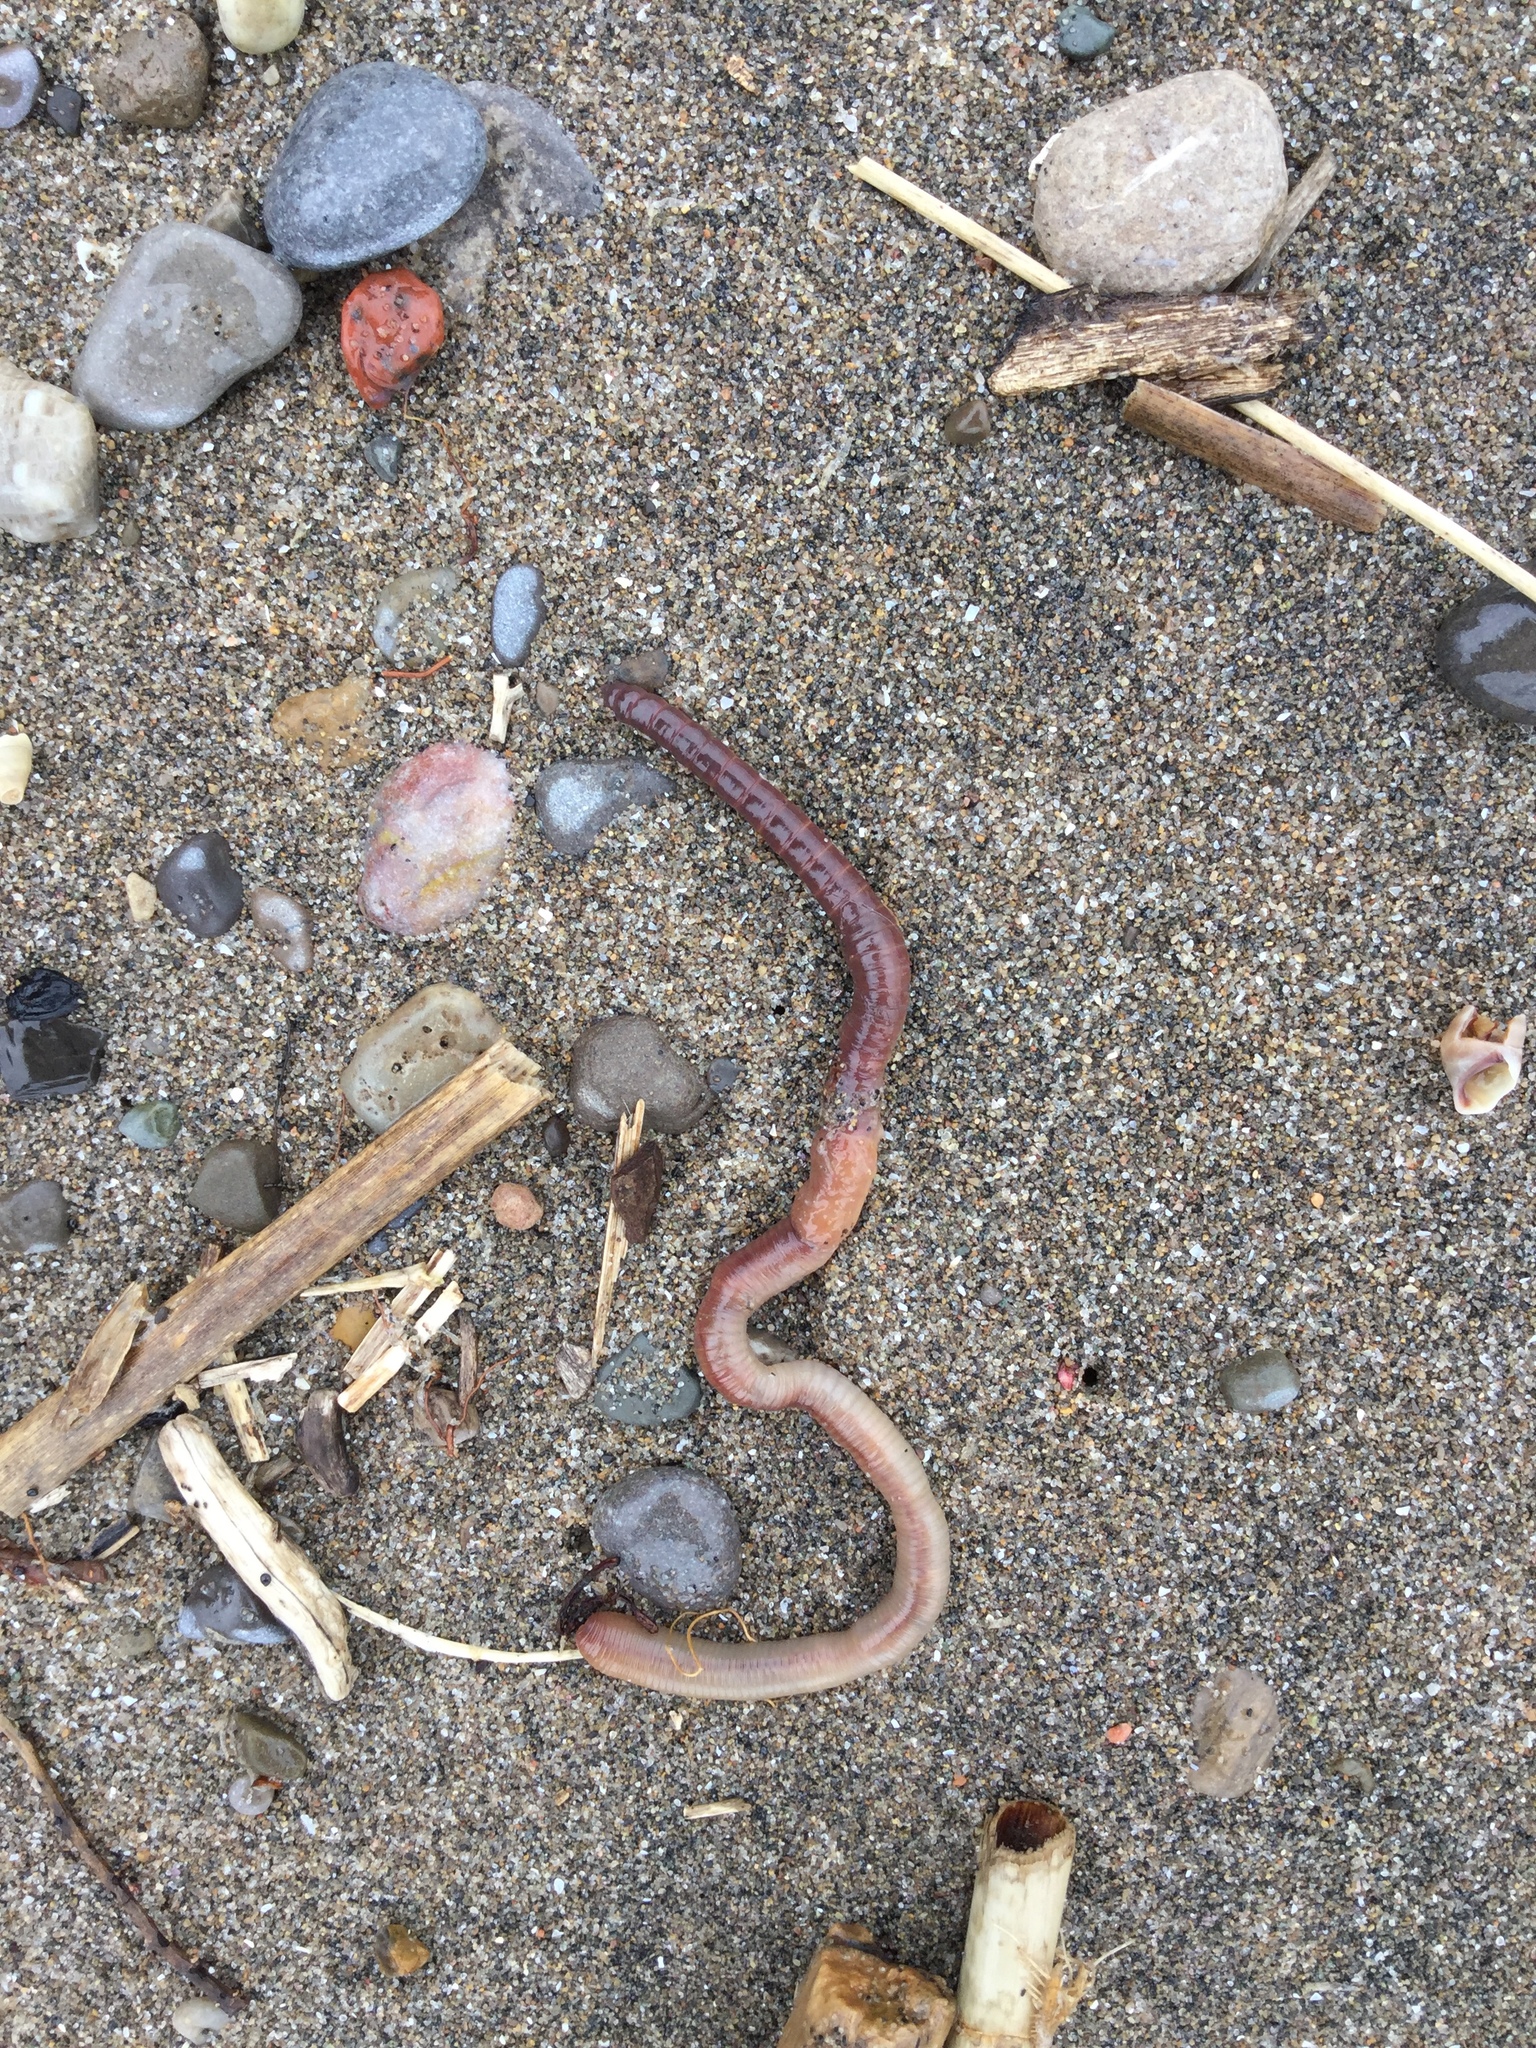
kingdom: Animalia
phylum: Annelida
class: Clitellata
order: Crassiclitellata
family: Lumbricidae
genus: Lumbricus
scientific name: Lumbricus terrestris
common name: Common earthworm
